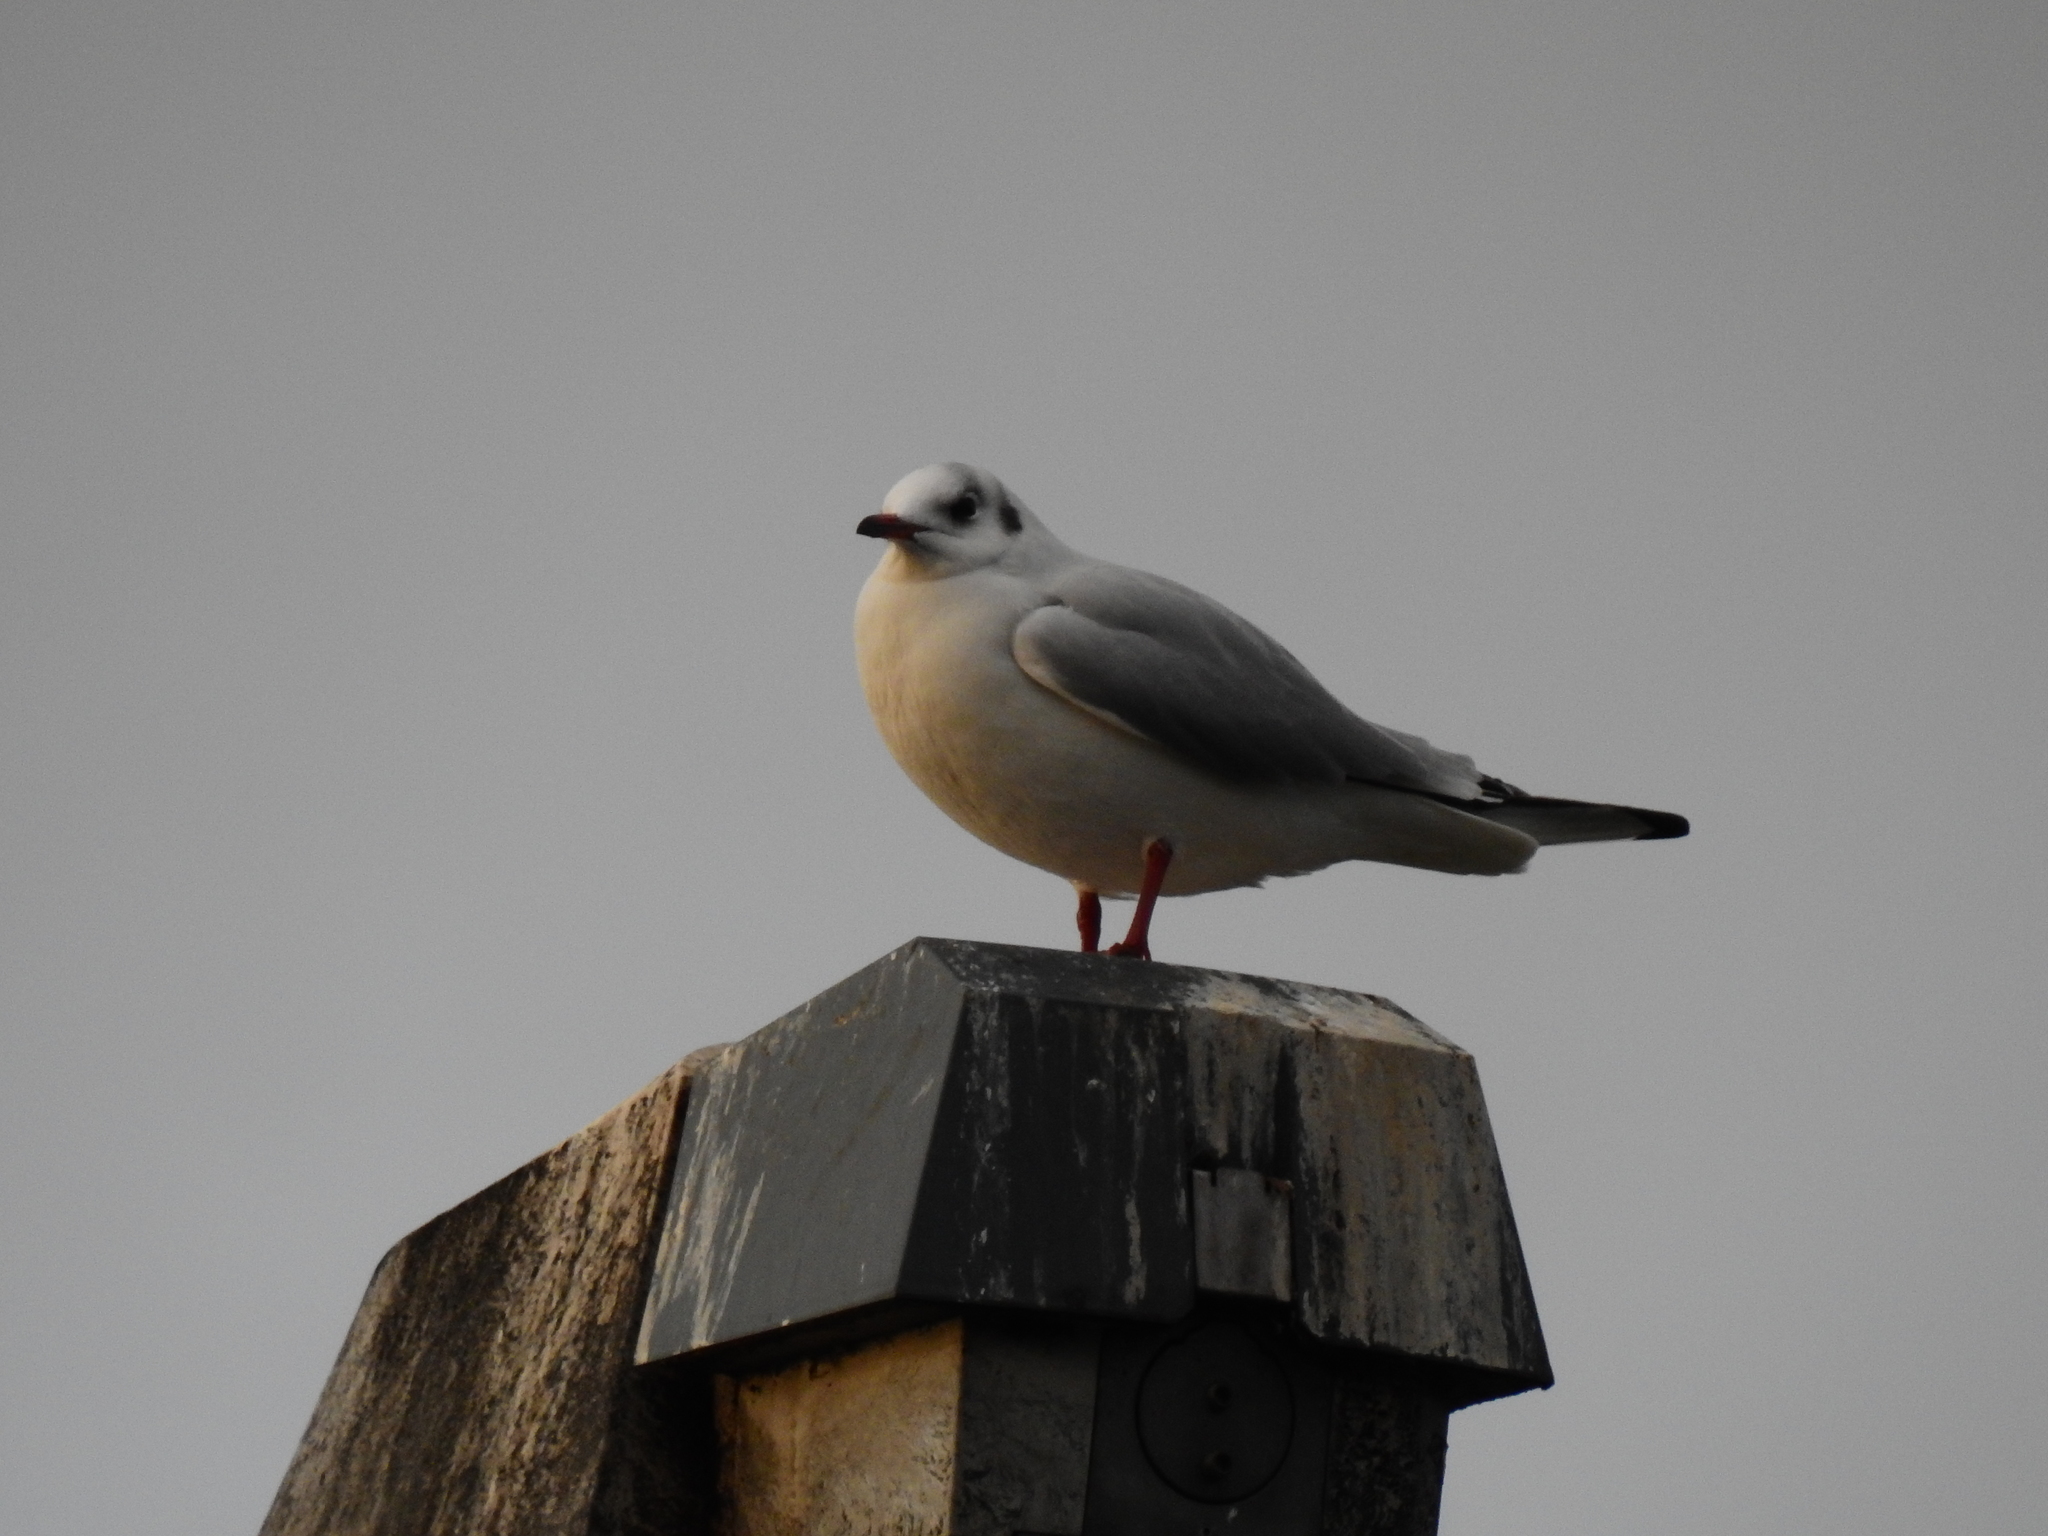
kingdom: Animalia
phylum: Chordata
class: Aves
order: Charadriiformes
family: Laridae
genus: Chroicocephalus
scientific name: Chroicocephalus ridibundus
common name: Black-headed gull
